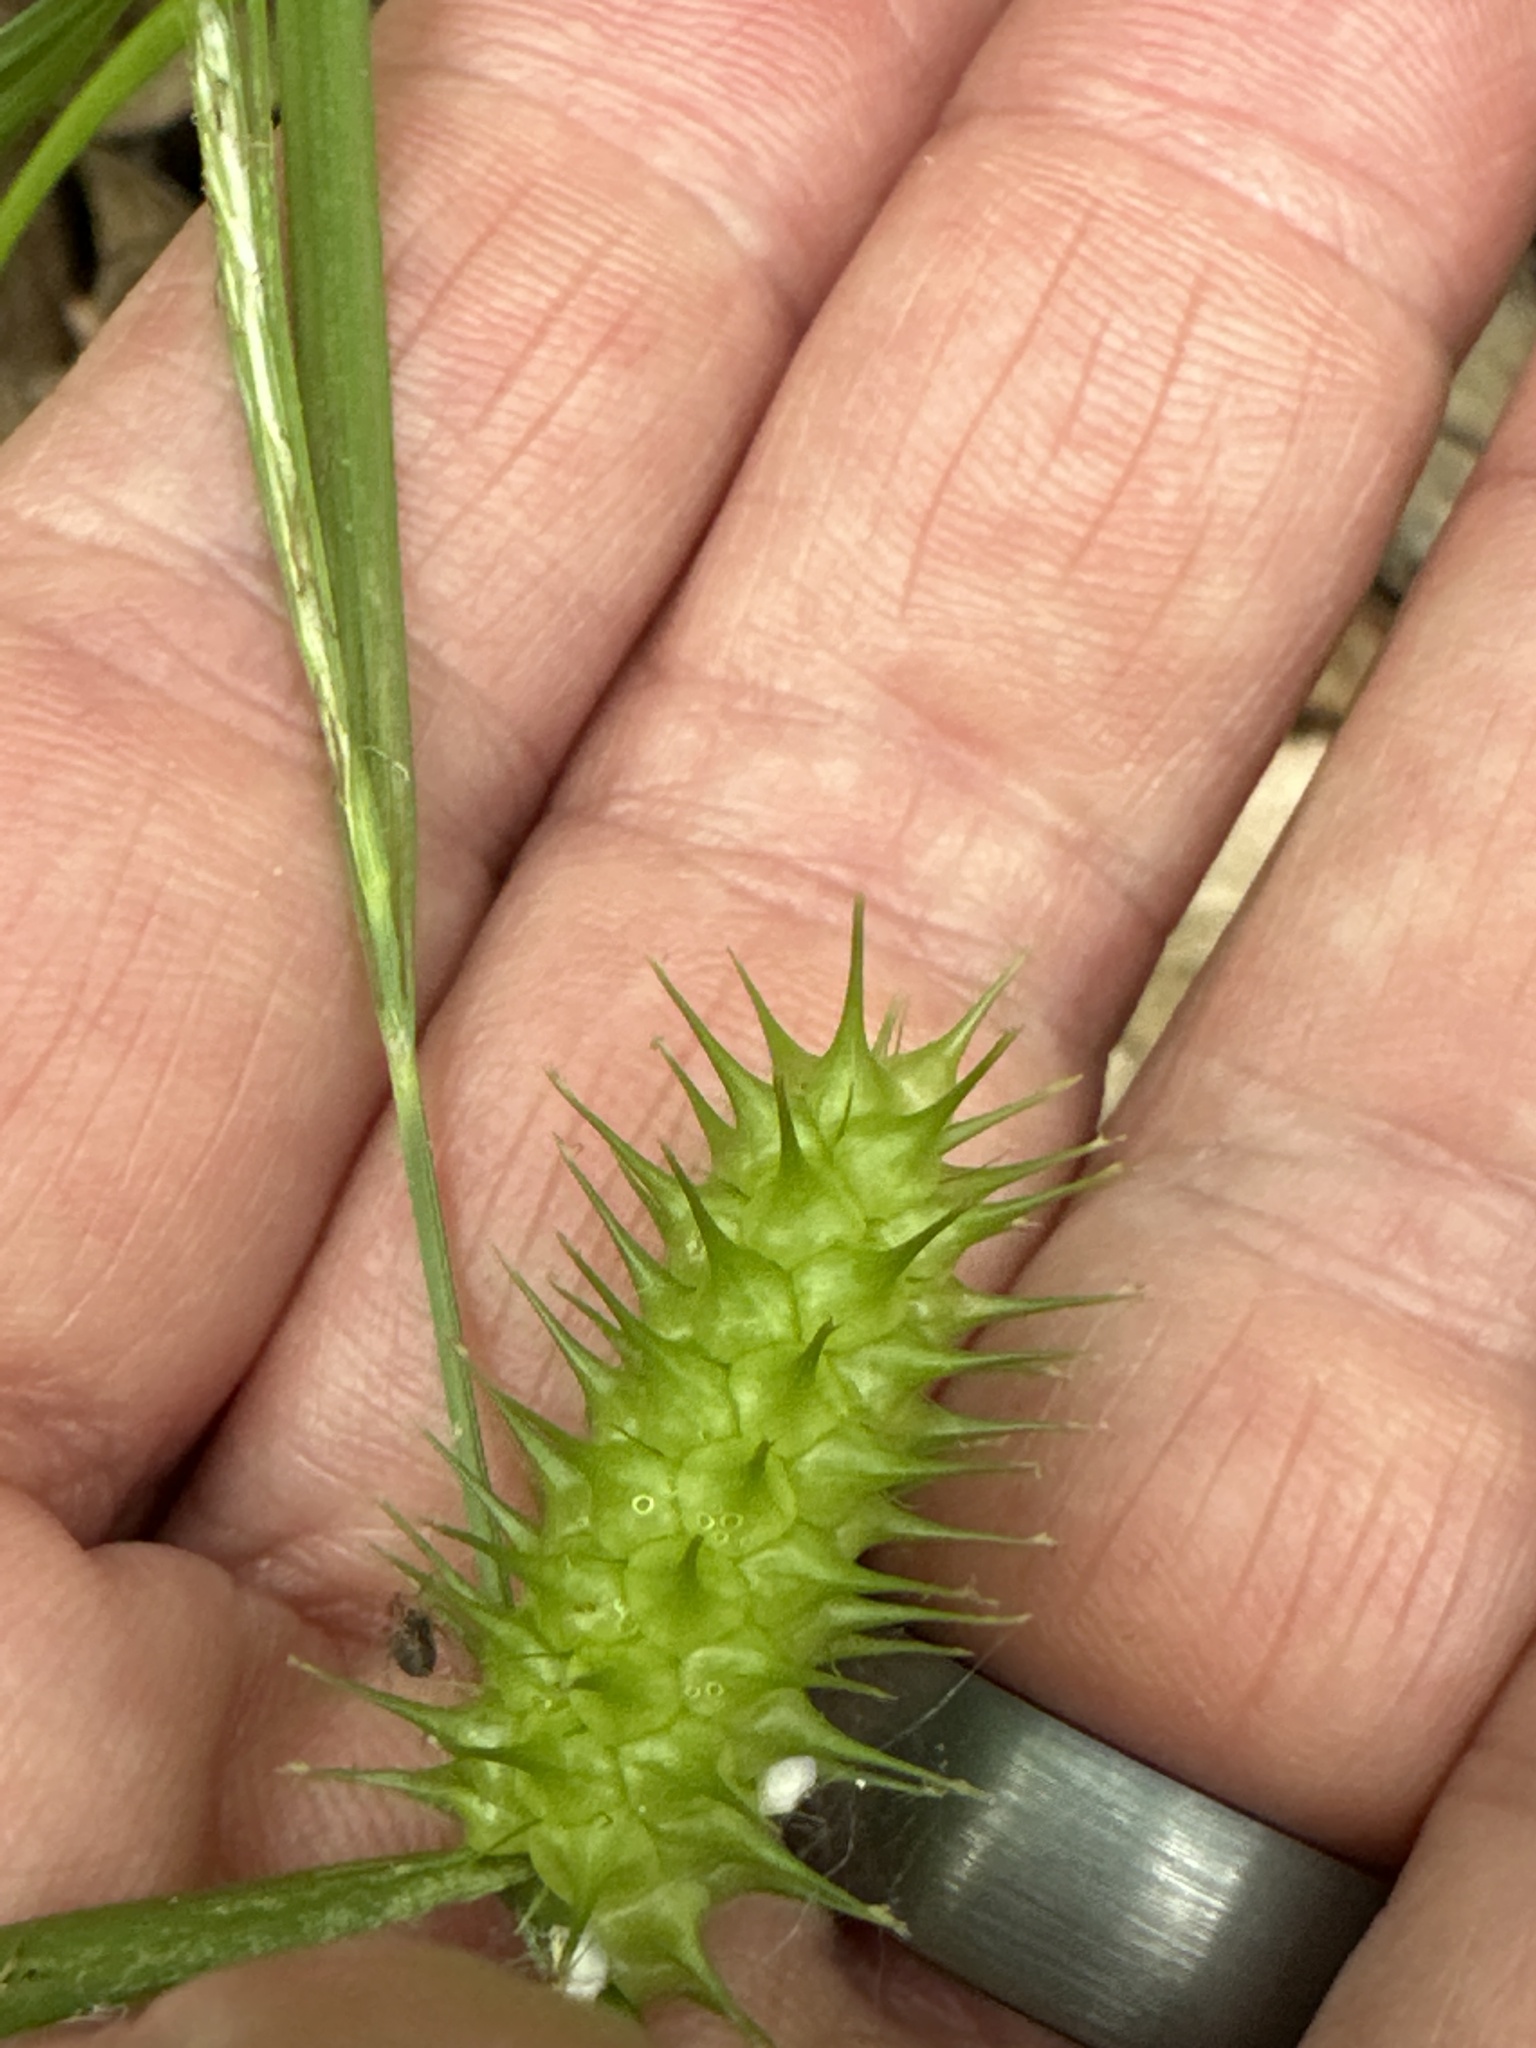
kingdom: Plantae
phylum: Tracheophyta
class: Liliopsida
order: Poales
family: Cyperaceae
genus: Carex
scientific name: Carex lurida
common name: Sallow sedge
